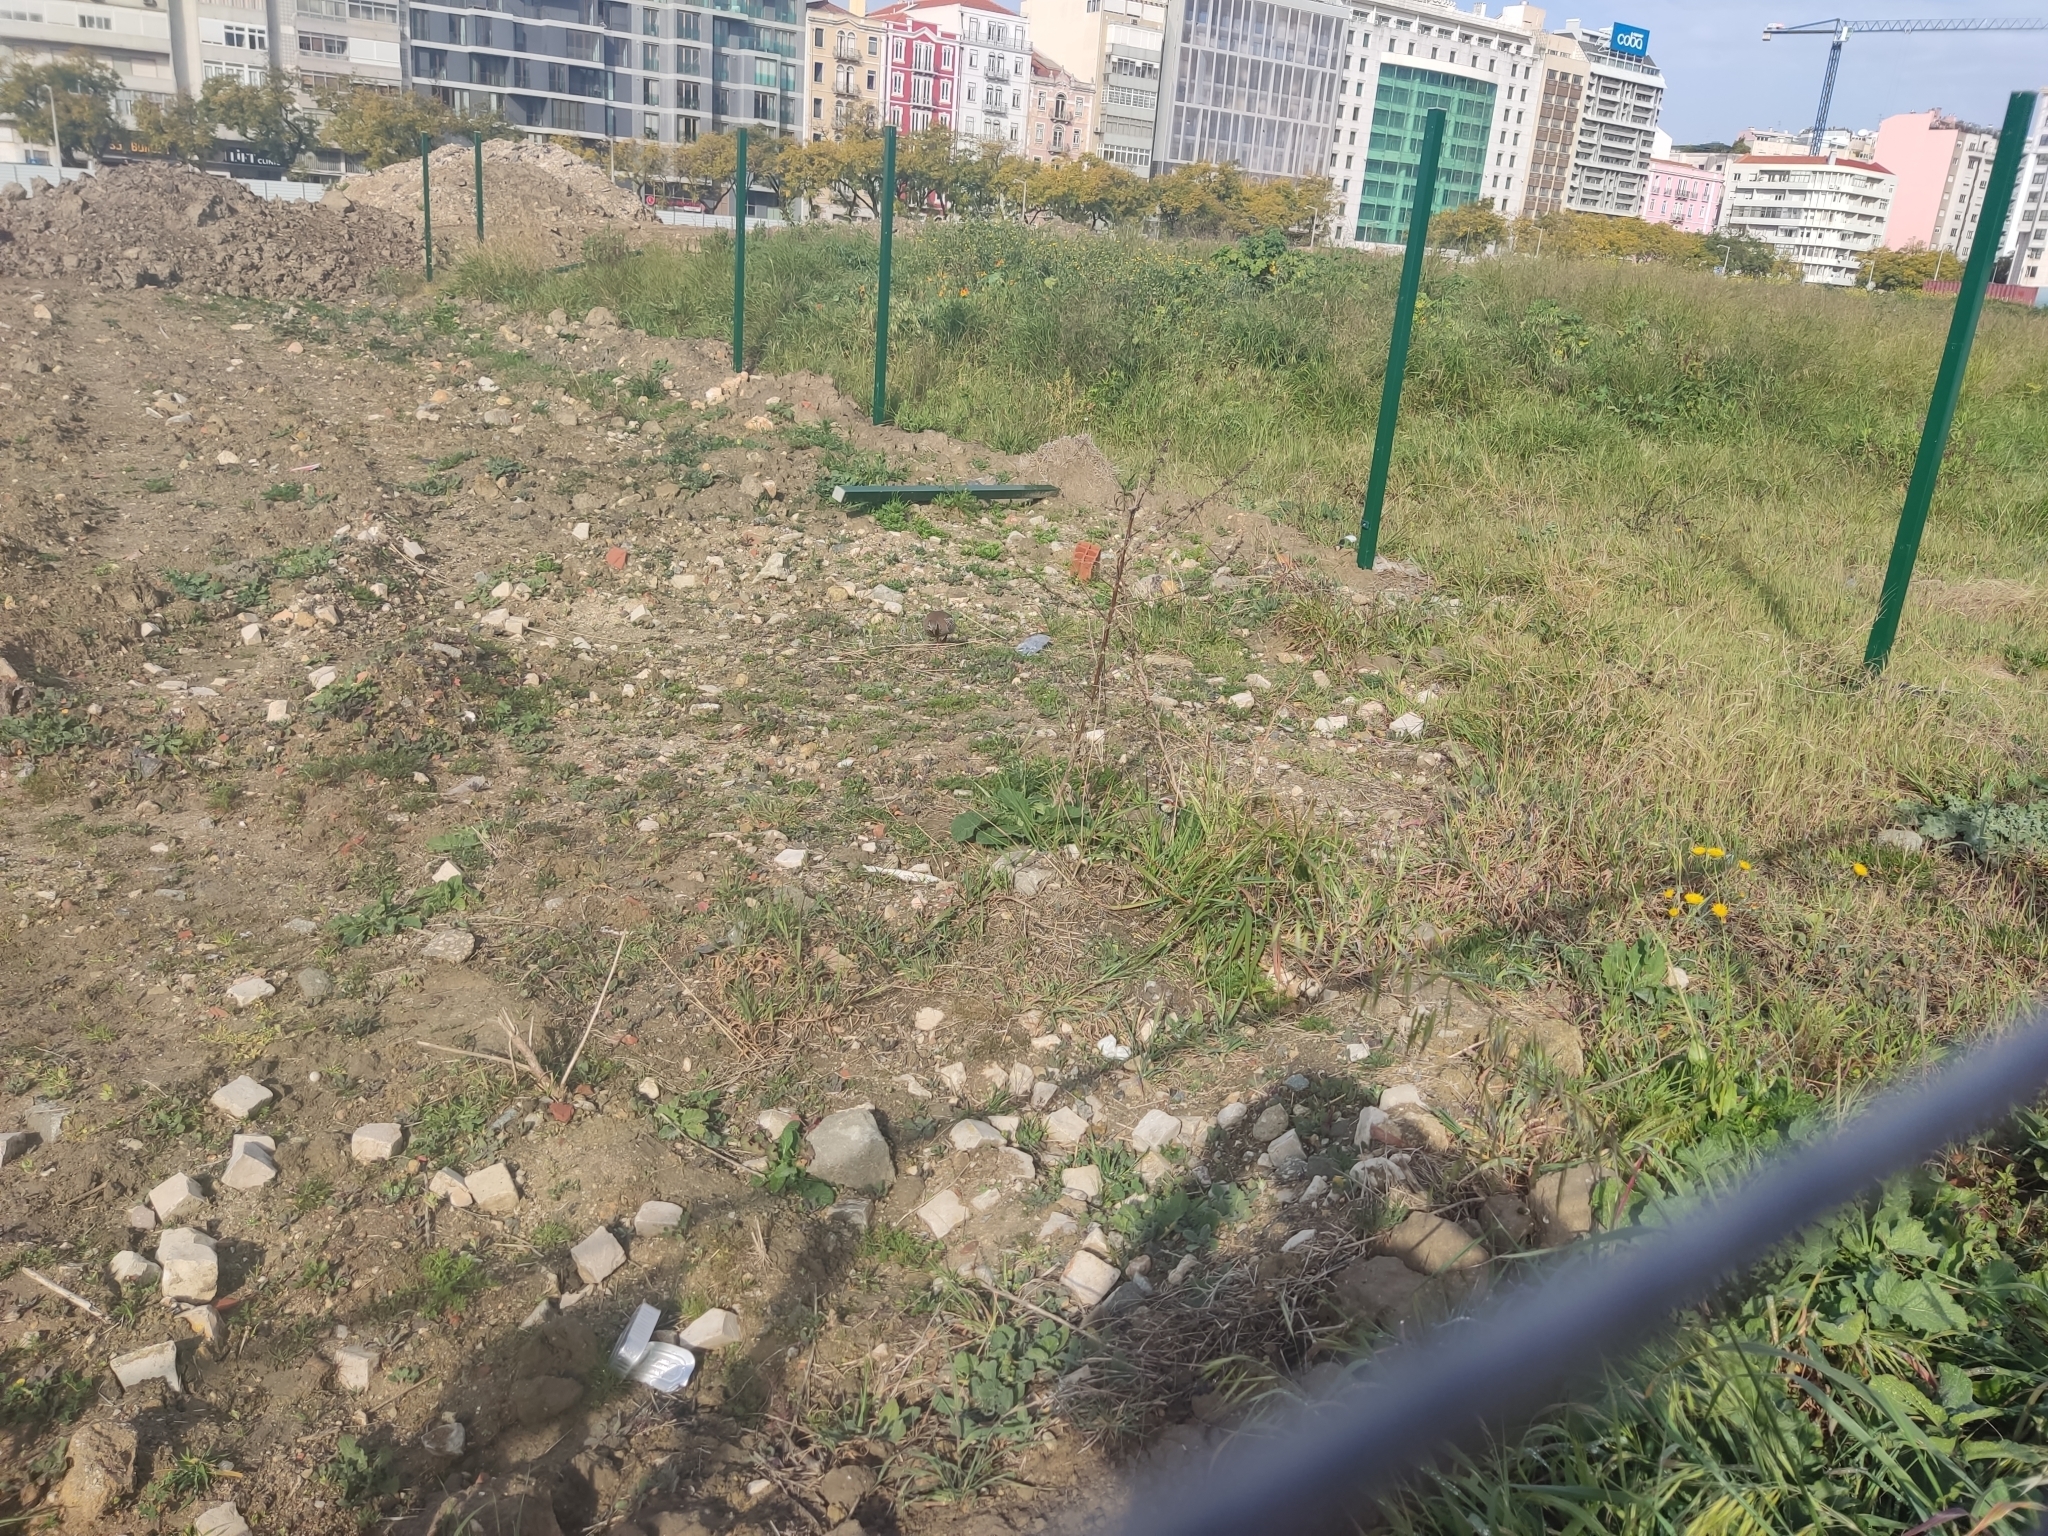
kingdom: Animalia
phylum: Chordata
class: Aves
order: Galliformes
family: Phasianidae
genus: Alectoris
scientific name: Alectoris rufa
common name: Red-legged partridge
